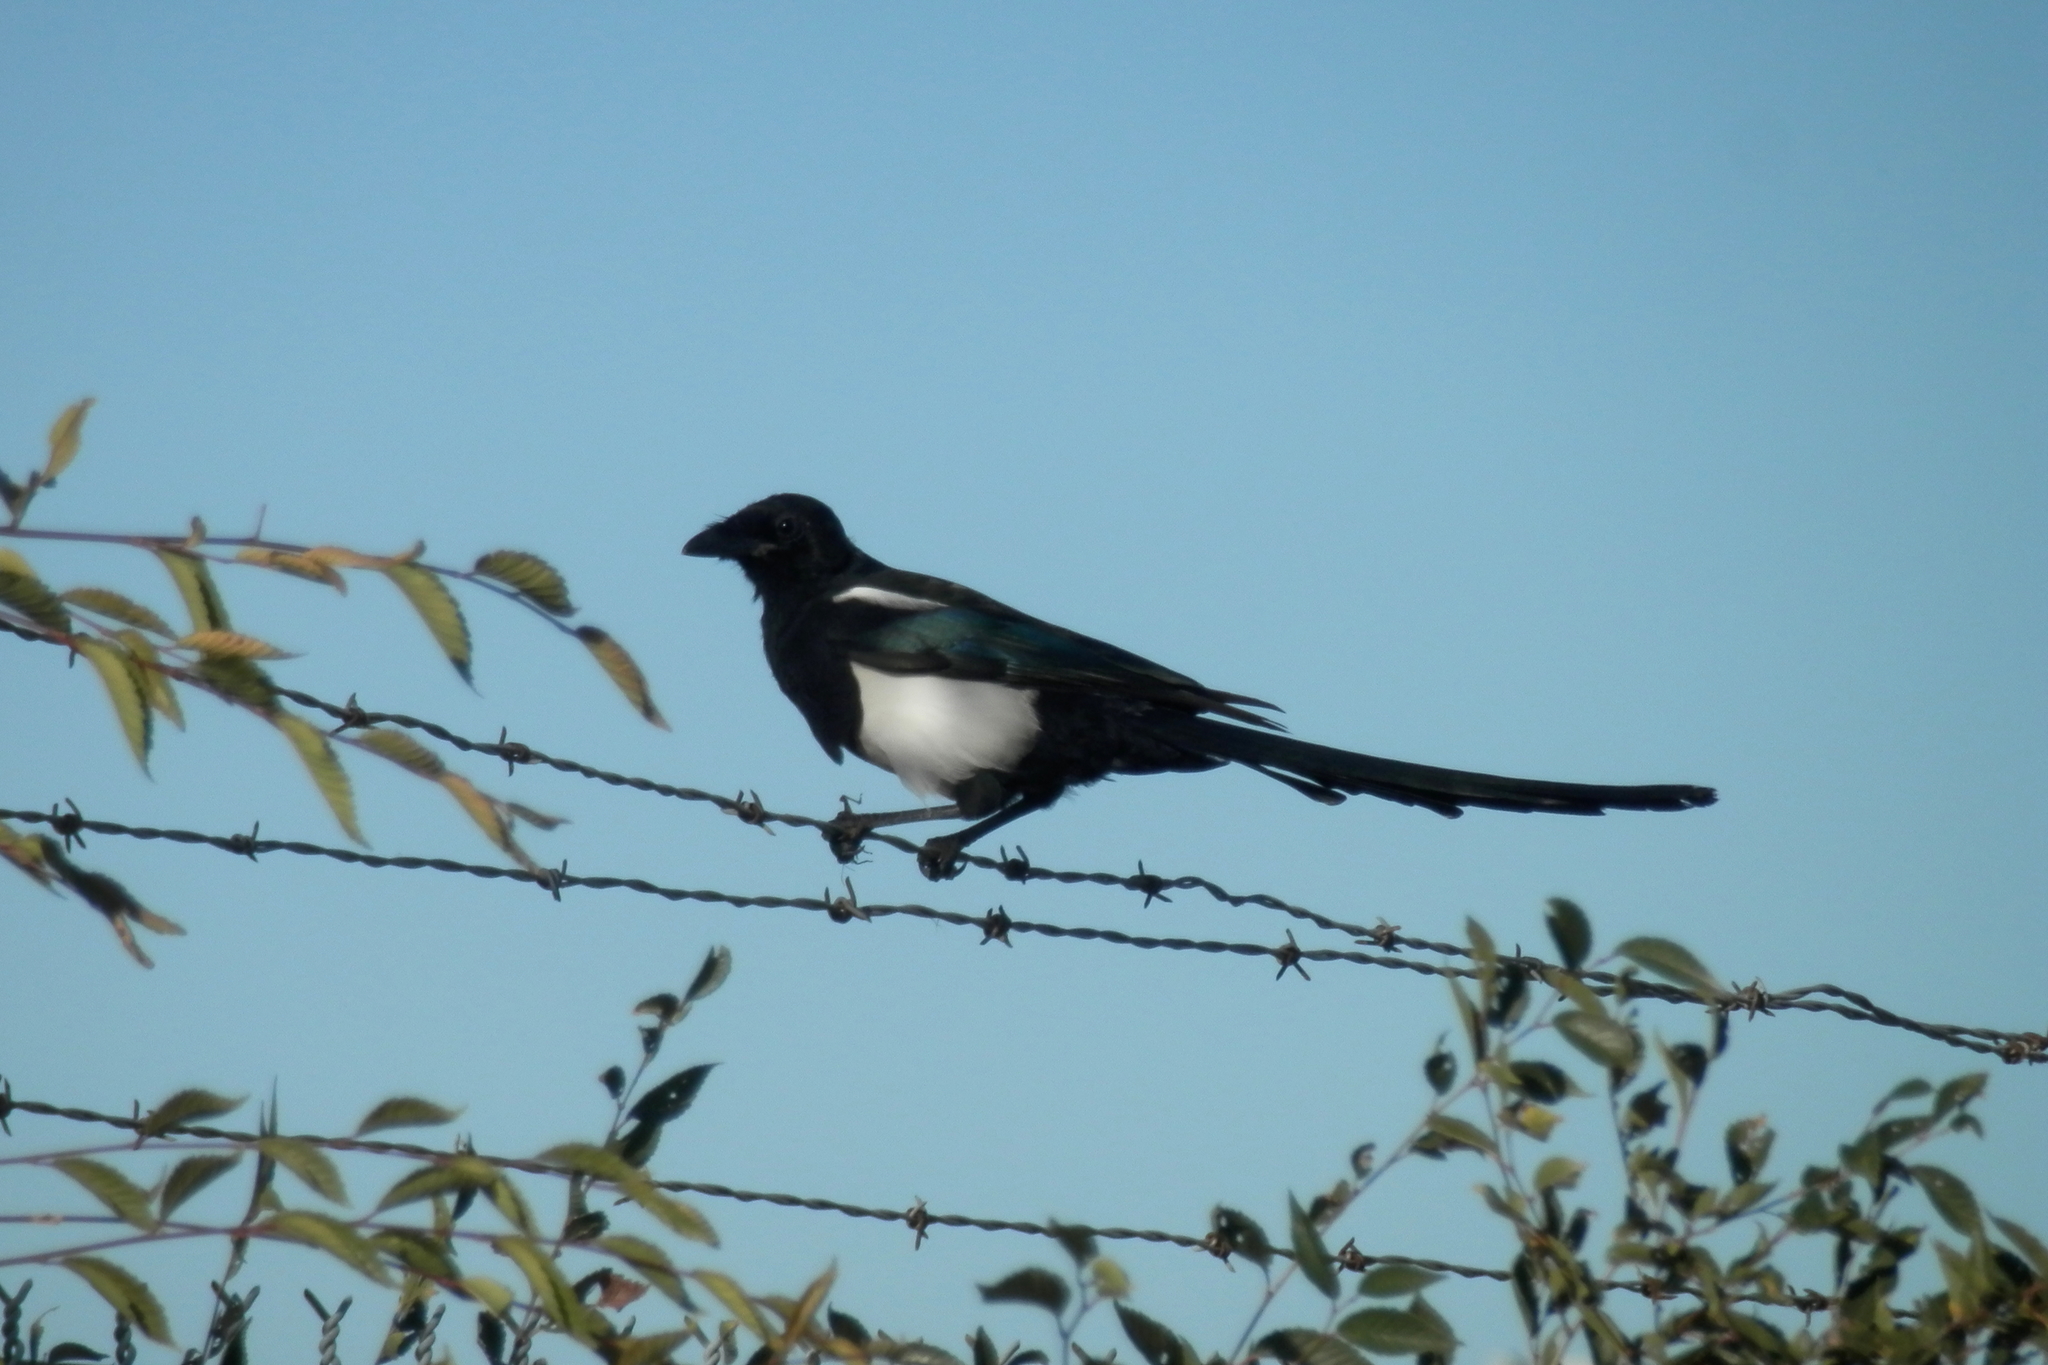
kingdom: Animalia
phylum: Chordata
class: Aves
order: Passeriformes
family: Corvidae
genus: Pica
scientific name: Pica hudsonia
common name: Black-billed magpie
